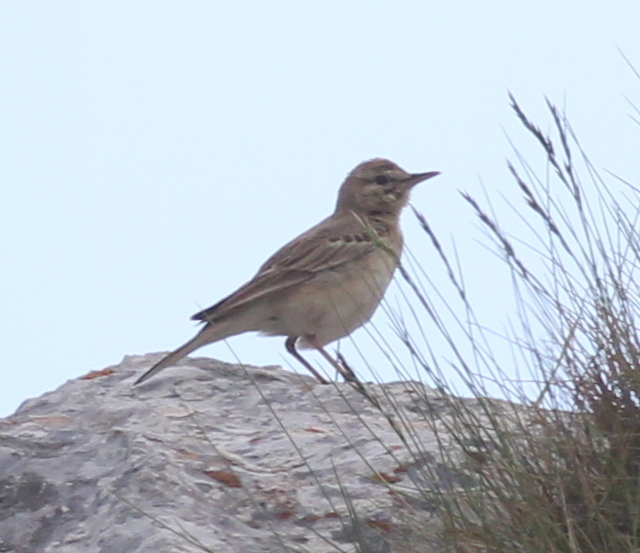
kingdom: Animalia
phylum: Chordata
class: Aves
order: Passeriformes
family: Motacillidae
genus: Anthus
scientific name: Anthus campestris
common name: Tawny pipit
